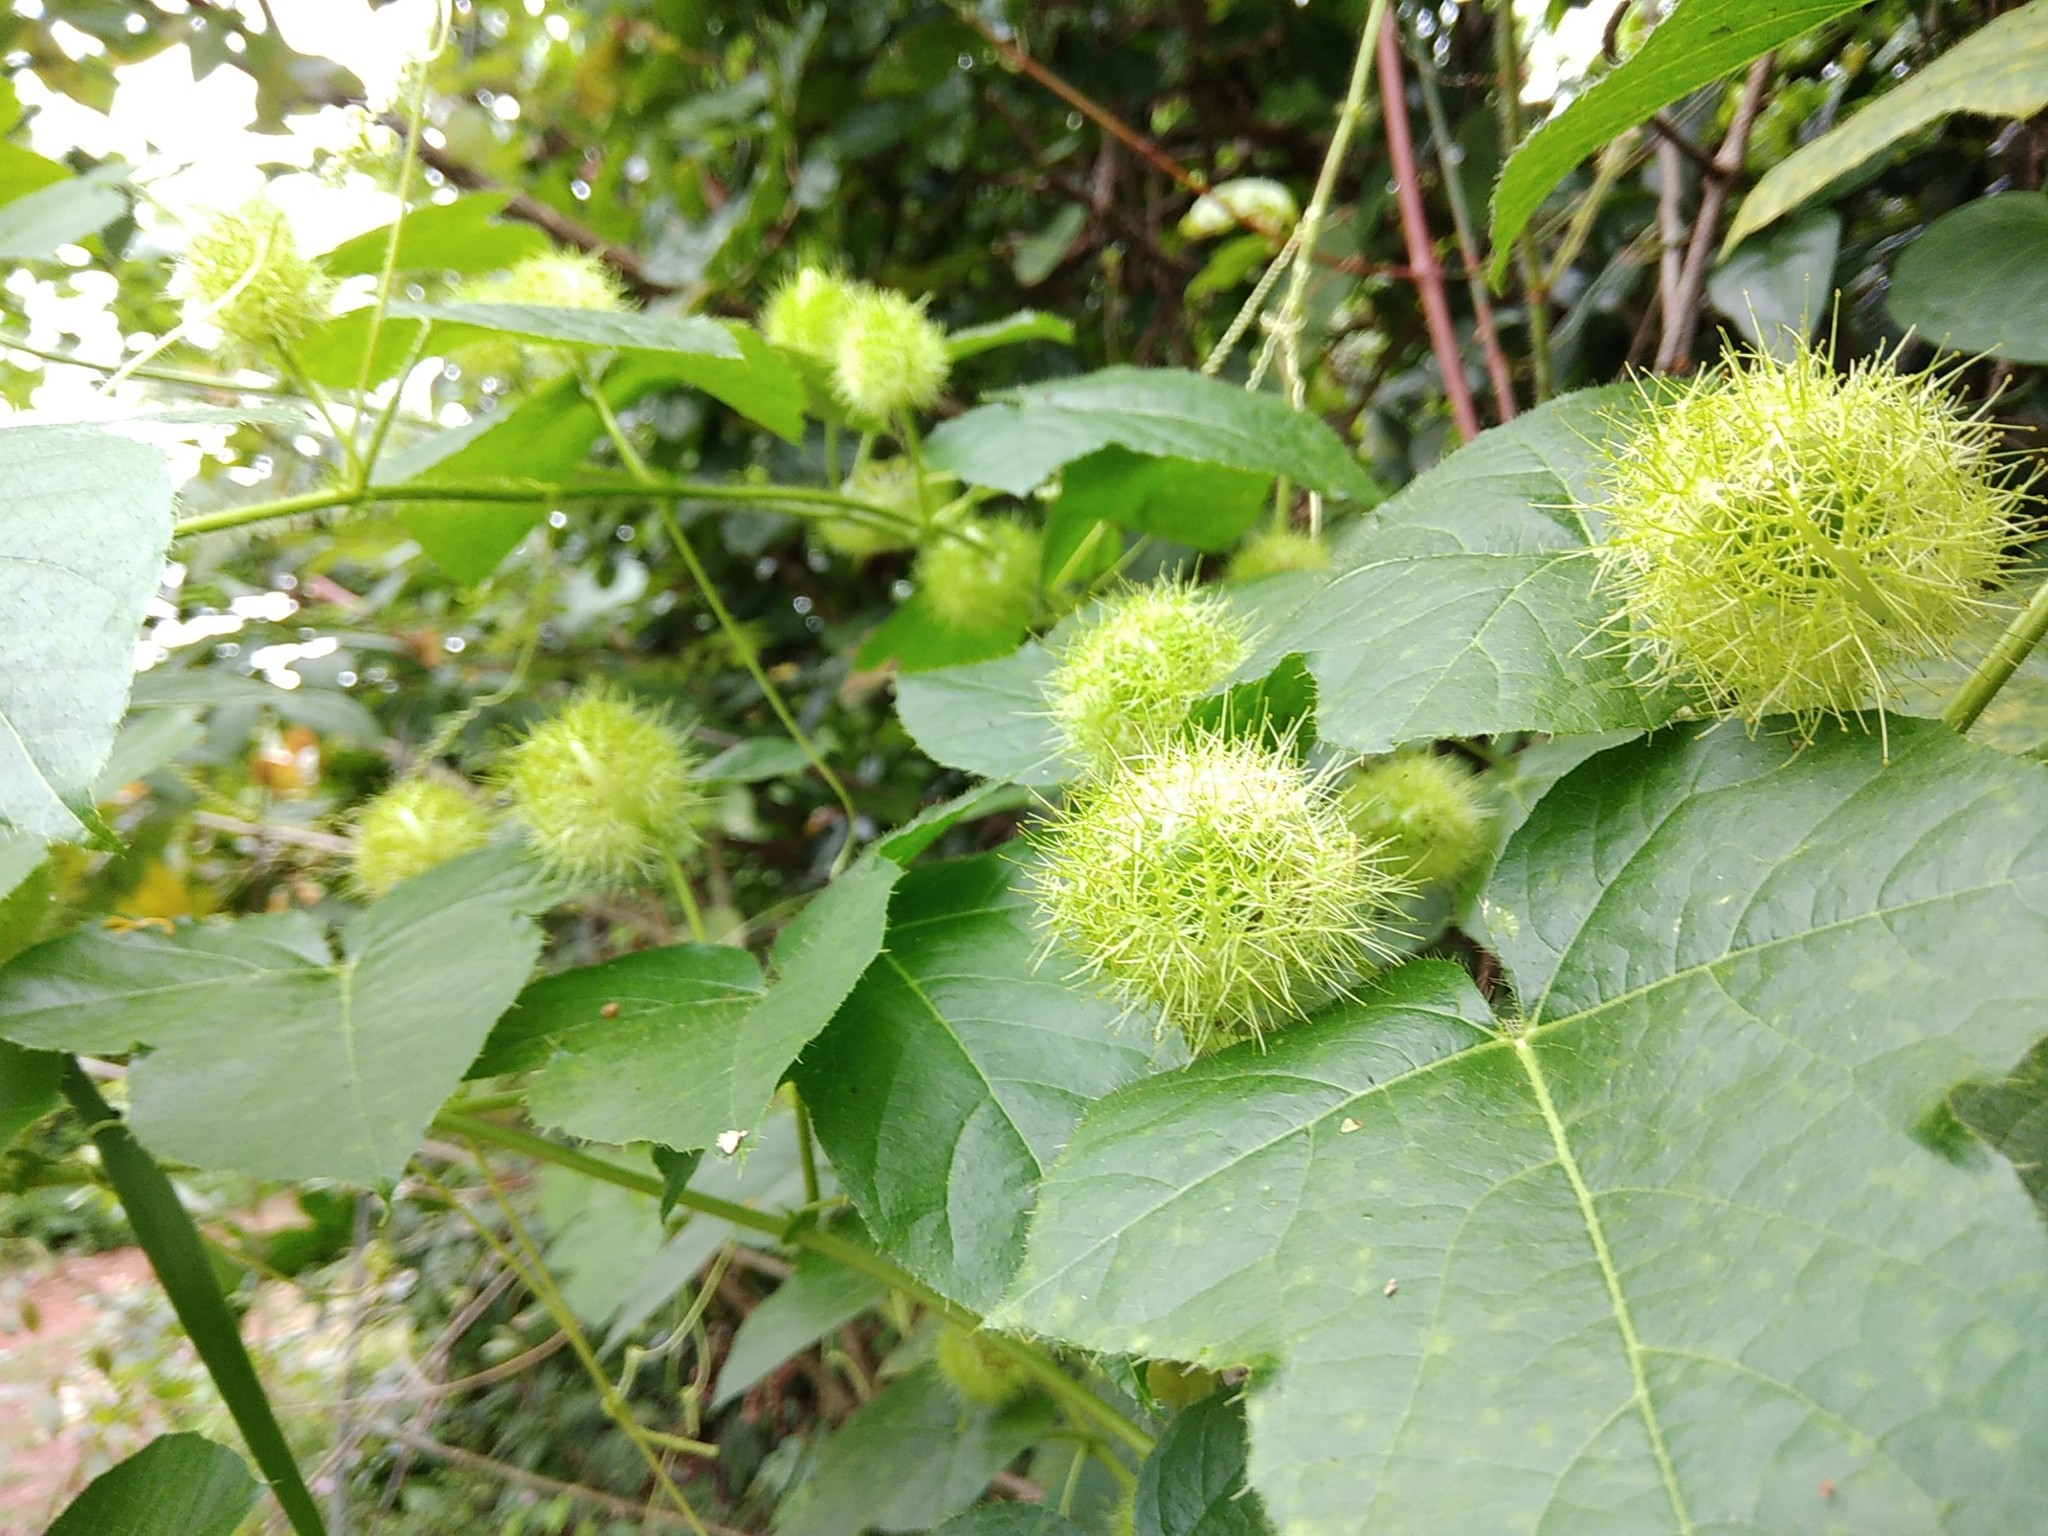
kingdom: Plantae
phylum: Tracheophyta
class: Magnoliopsida
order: Malpighiales
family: Passifloraceae
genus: Passiflora
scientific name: Passiflora foetida
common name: Fetid passionflower
